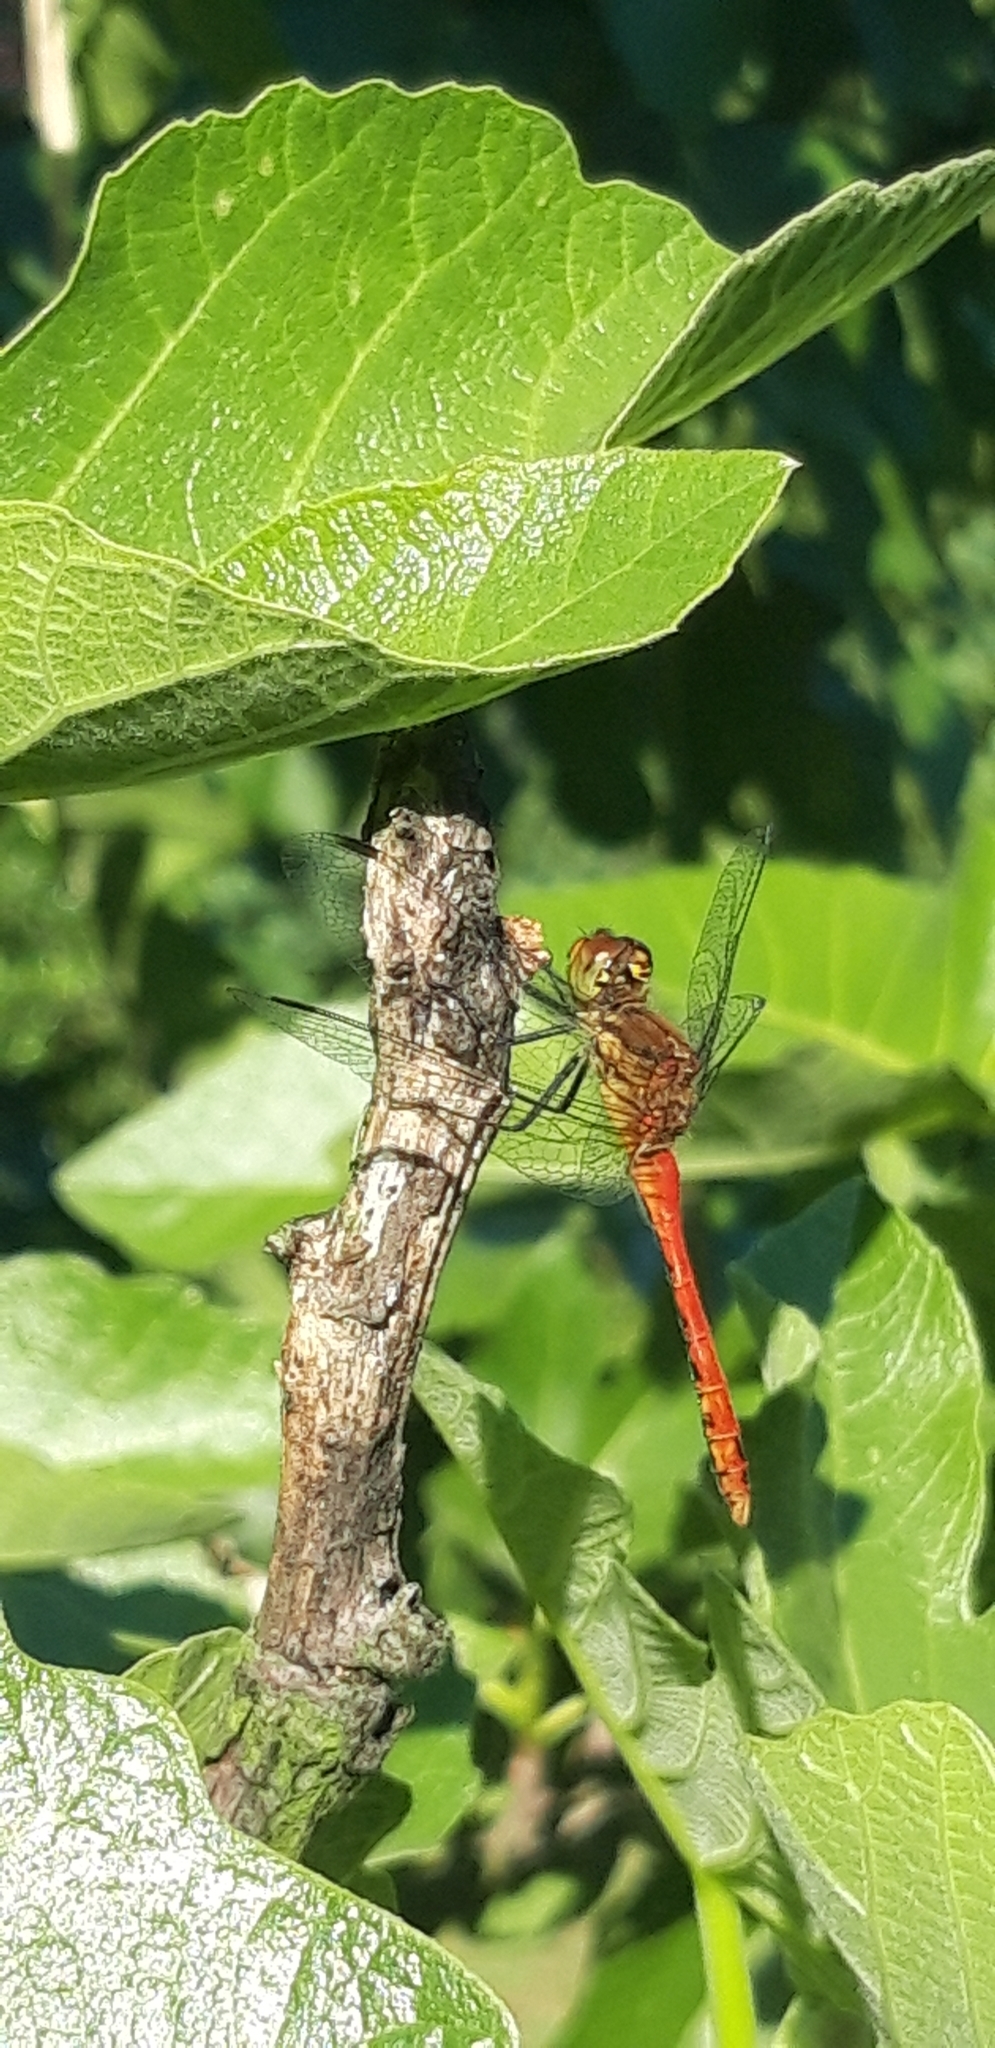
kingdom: Animalia
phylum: Arthropoda
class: Insecta
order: Odonata
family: Libellulidae
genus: Sympetrum
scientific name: Sympetrum sanguineum
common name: Ruddy darter
